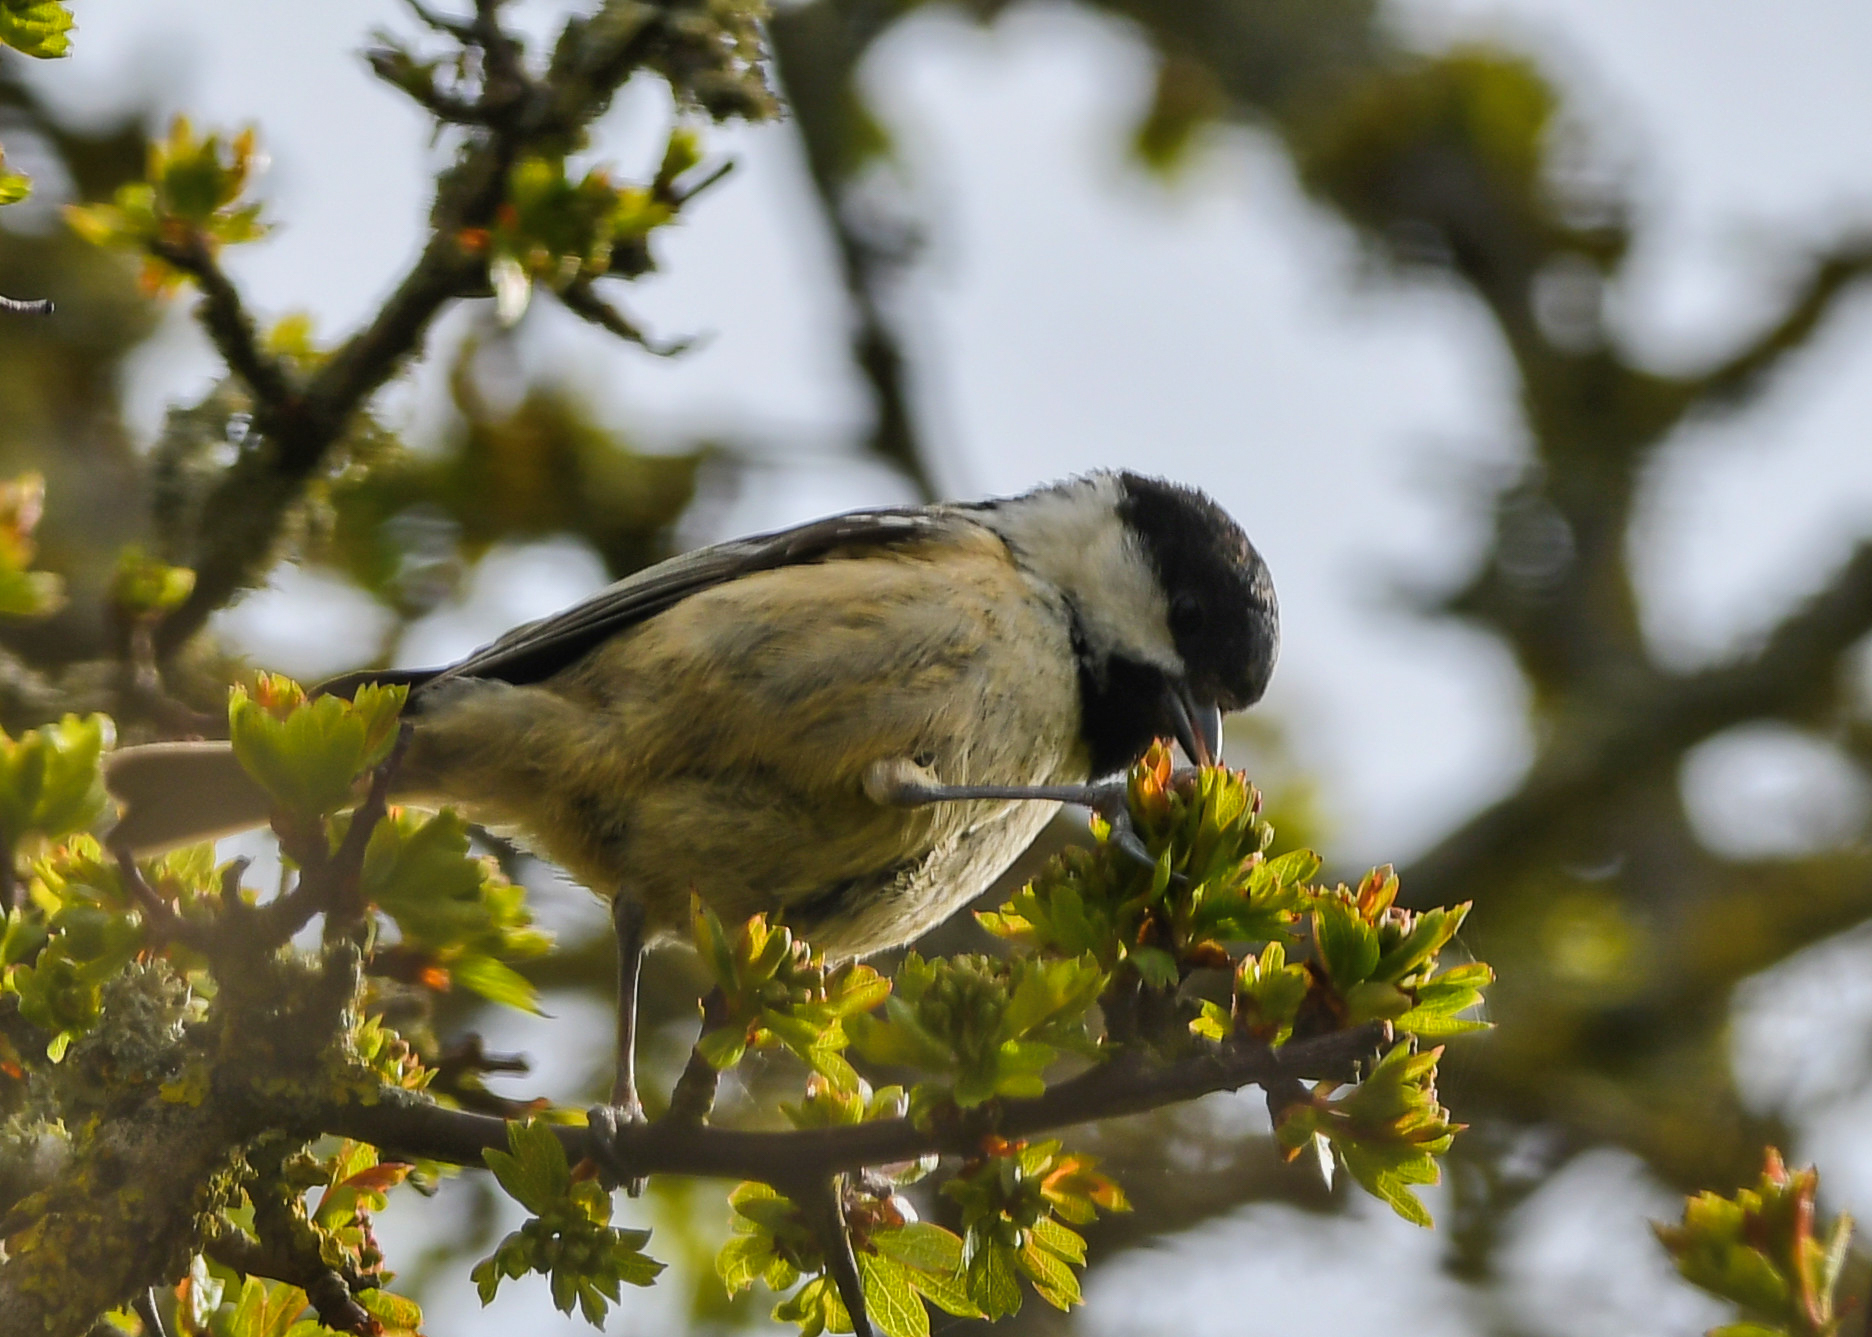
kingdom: Animalia
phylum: Chordata
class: Aves
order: Passeriformes
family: Paridae
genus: Periparus
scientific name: Periparus ater
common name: Coal tit
